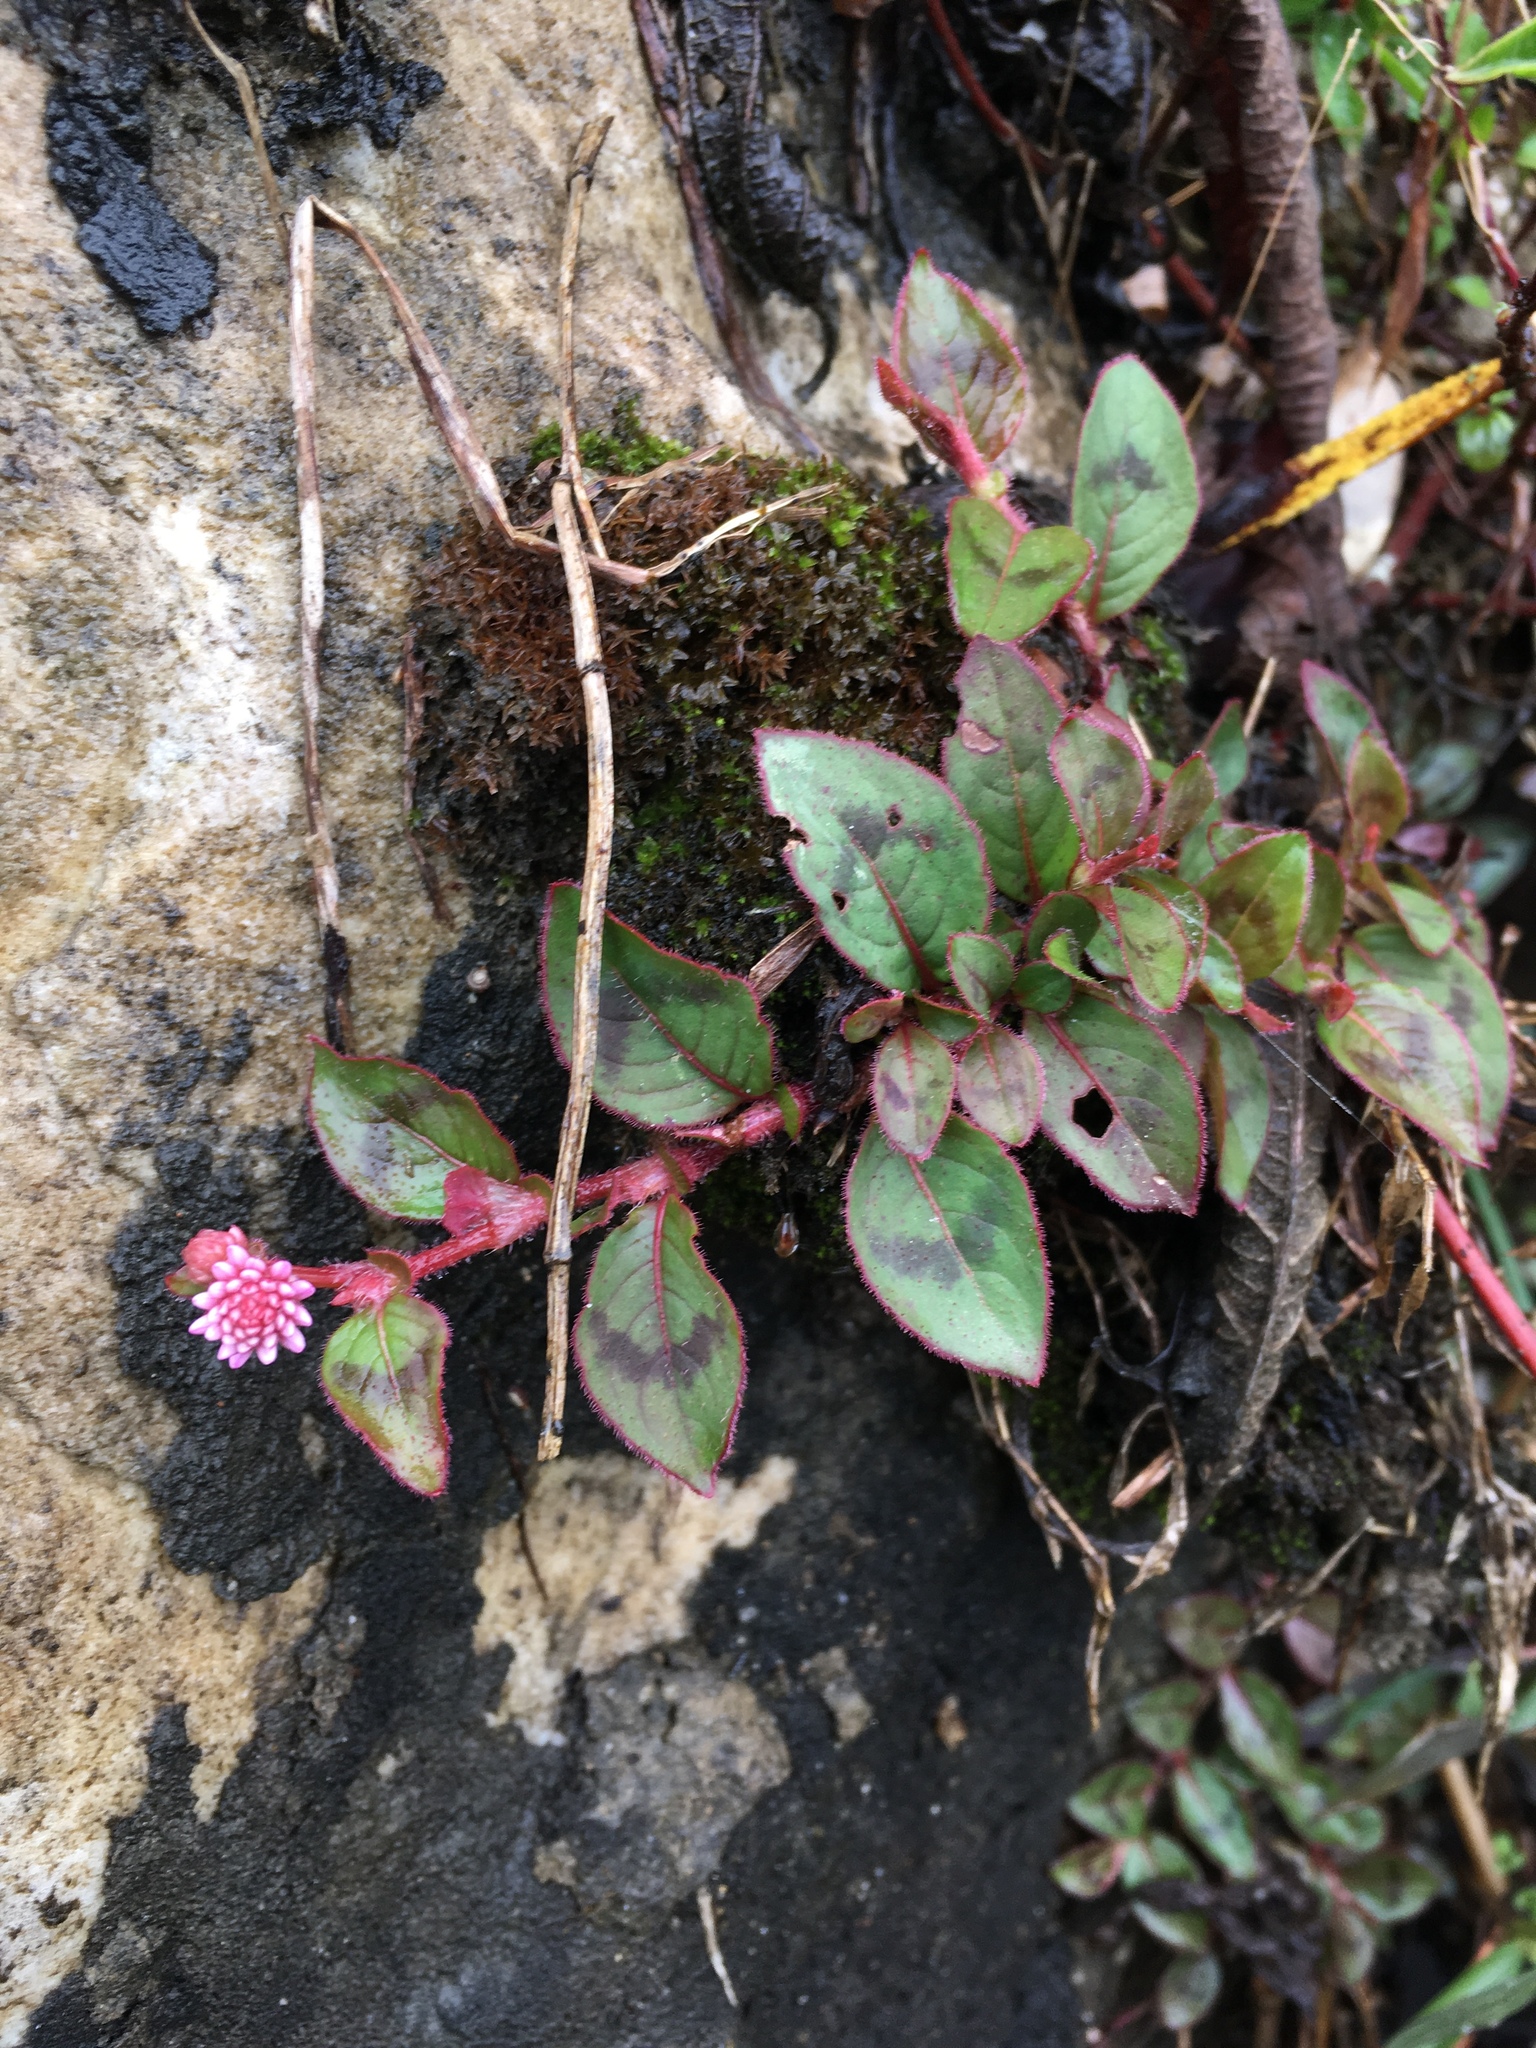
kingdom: Plantae
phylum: Tracheophyta
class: Magnoliopsida
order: Caryophyllales
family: Polygonaceae
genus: Persicaria
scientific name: Persicaria capitata
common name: Pinkhead smartweed
